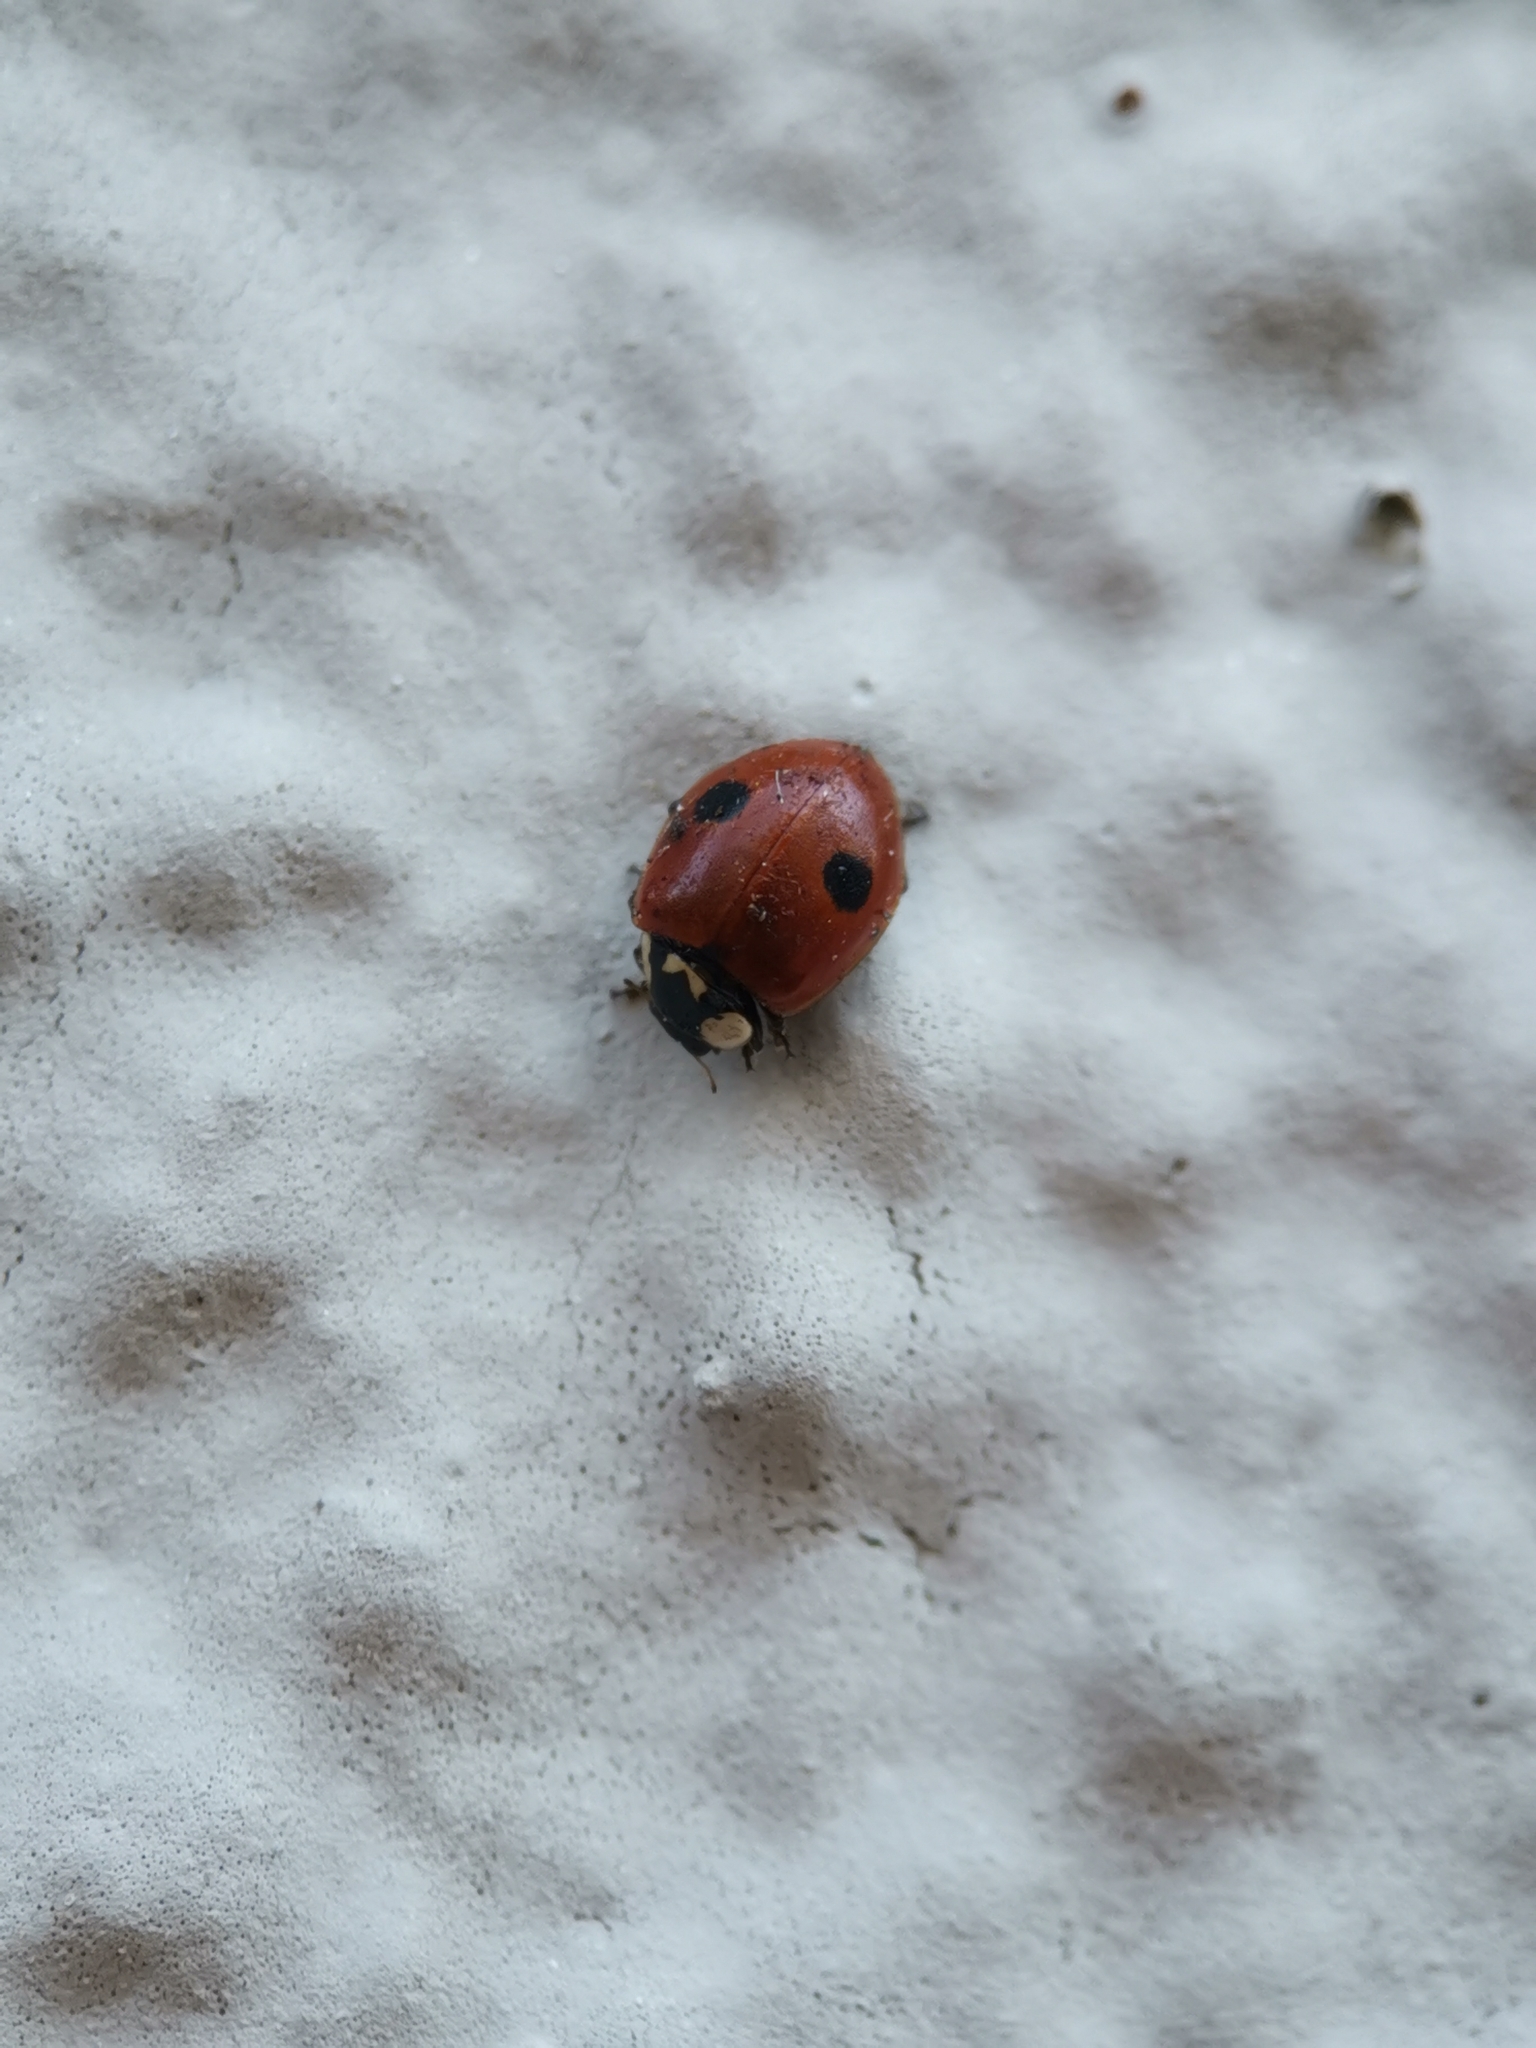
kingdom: Animalia
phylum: Arthropoda
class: Insecta
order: Coleoptera
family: Coccinellidae
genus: Adalia
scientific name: Adalia bipunctata
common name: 2-spot ladybird
